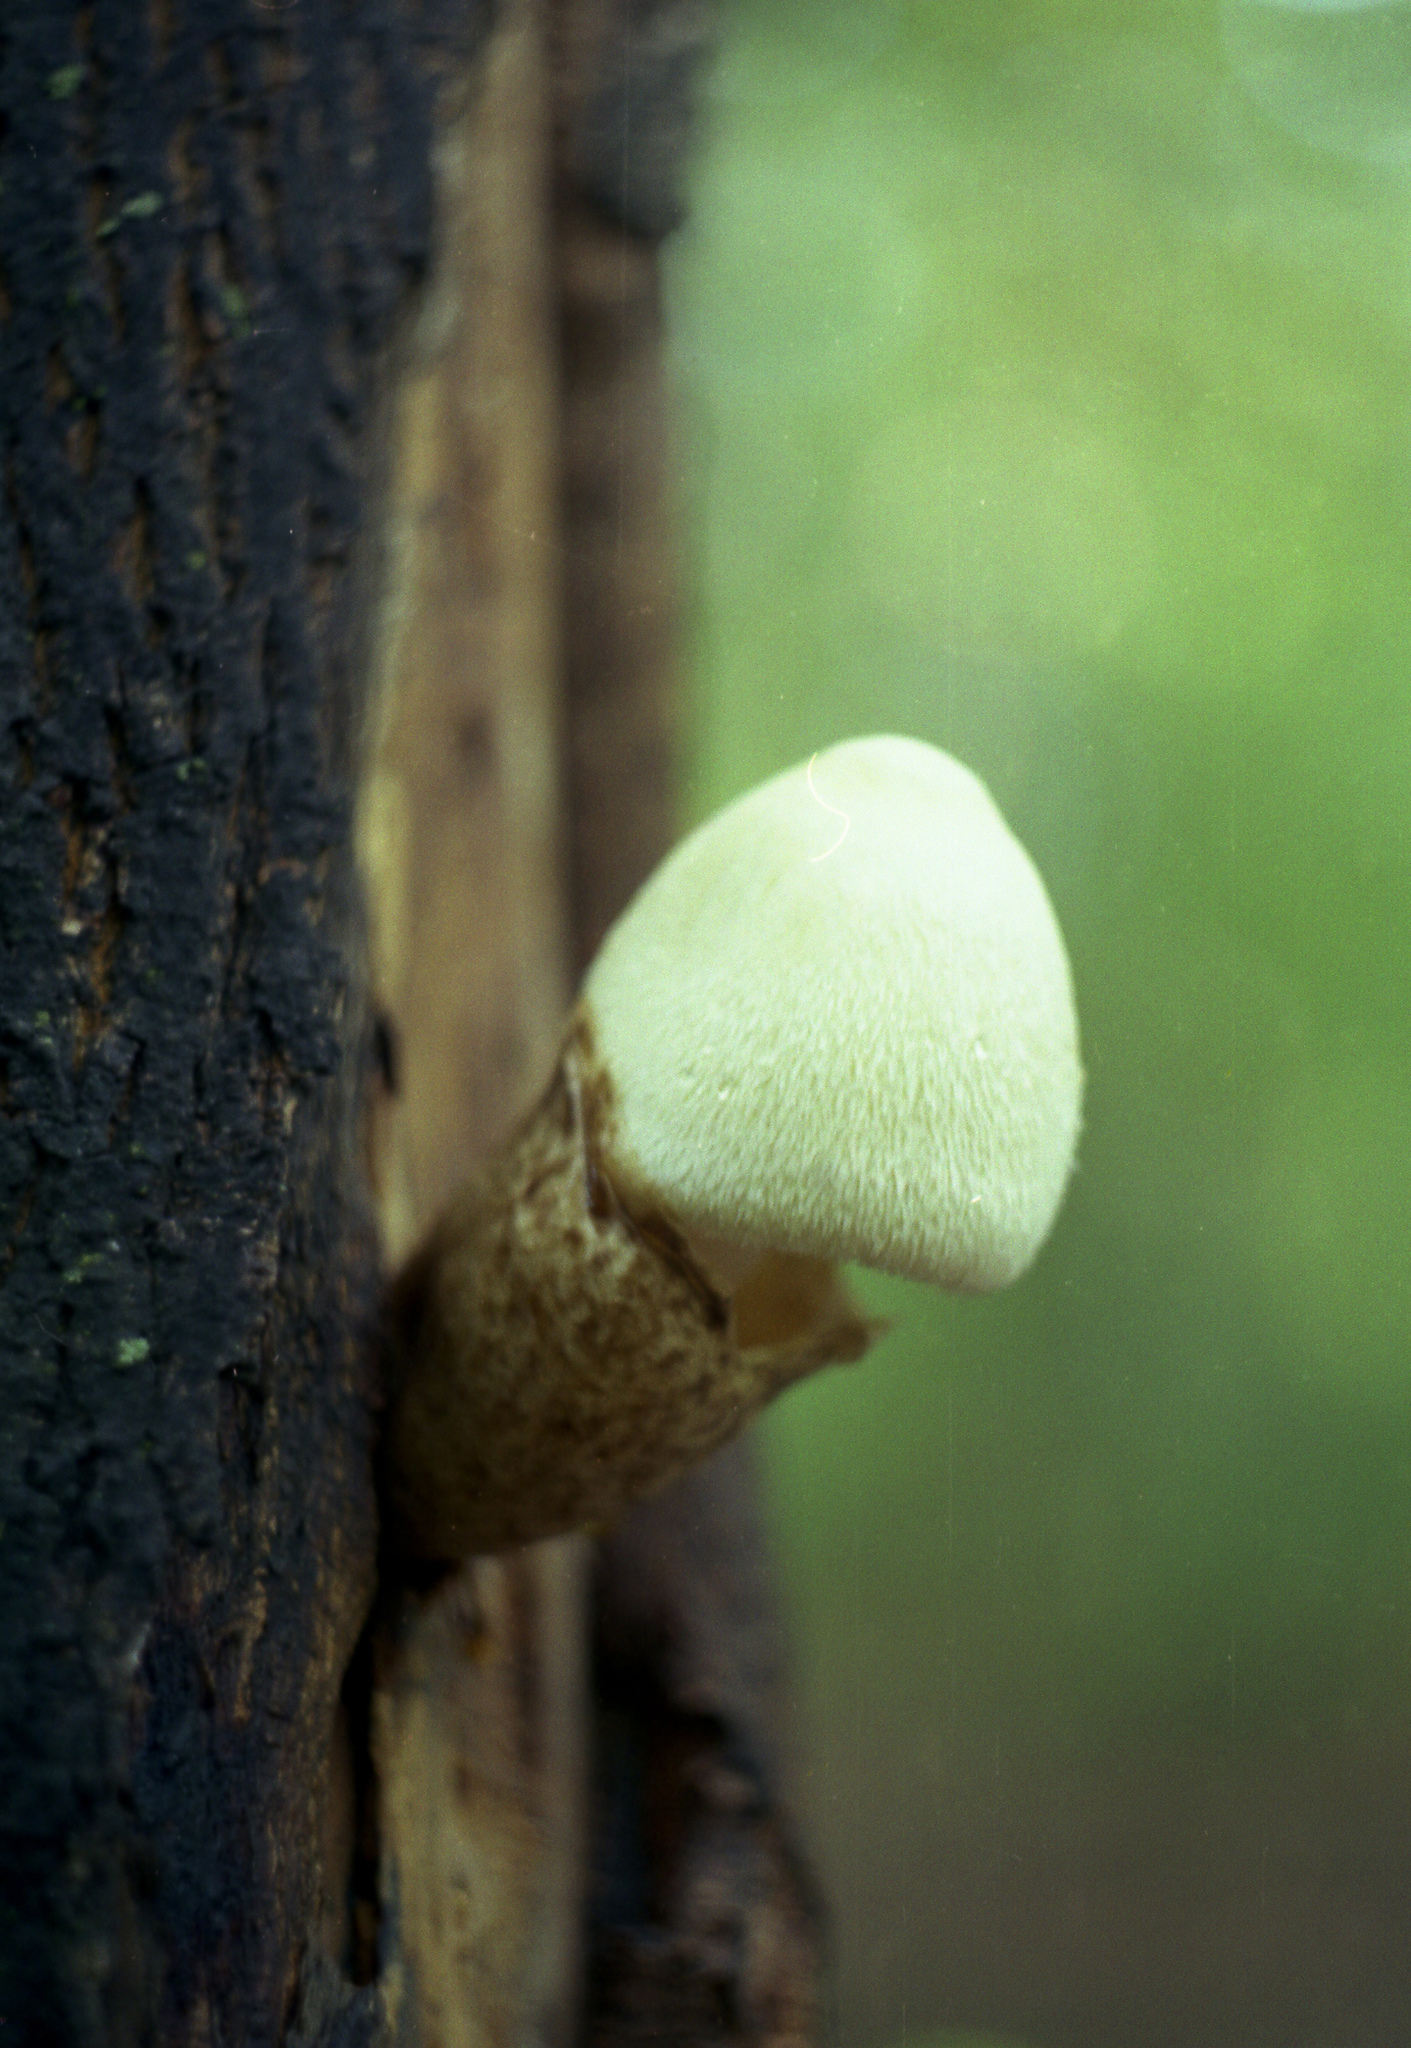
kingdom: Fungi
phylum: Basidiomycota
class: Agaricomycetes
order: Agaricales
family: Pluteaceae
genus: Volvariella
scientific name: Volvariella bombycina
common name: Silky rosegill
